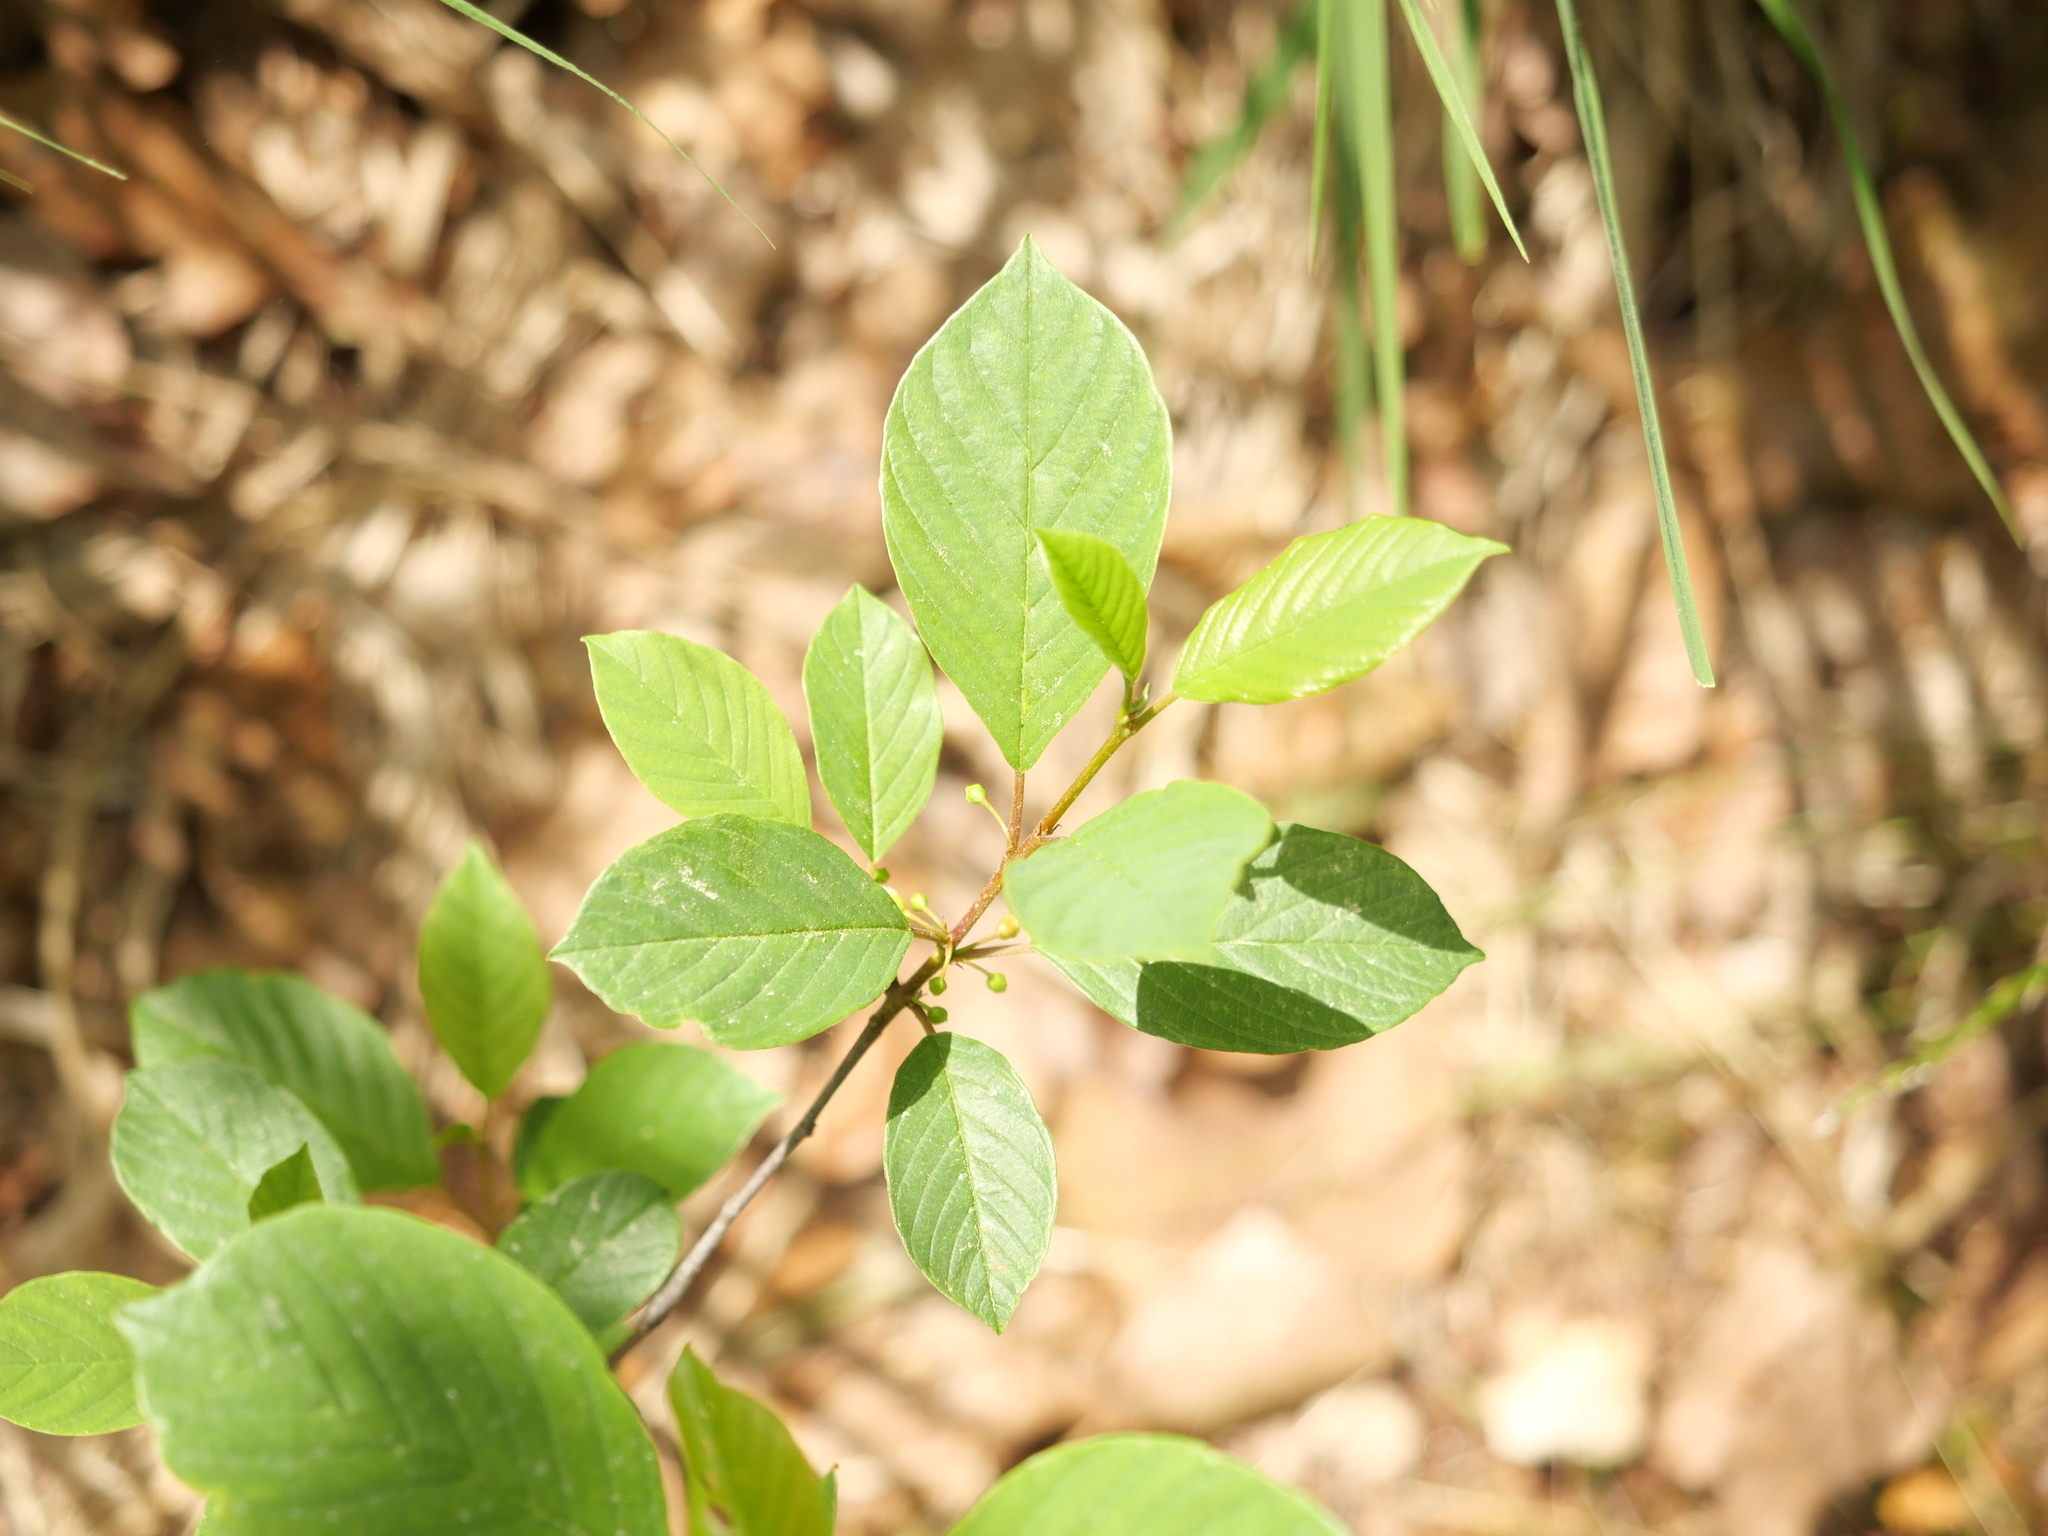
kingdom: Plantae
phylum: Tracheophyta
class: Magnoliopsida
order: Rosales
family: Rhamnaceae
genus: Frangula
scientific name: Frangula alnus
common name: Alder buckthorn
